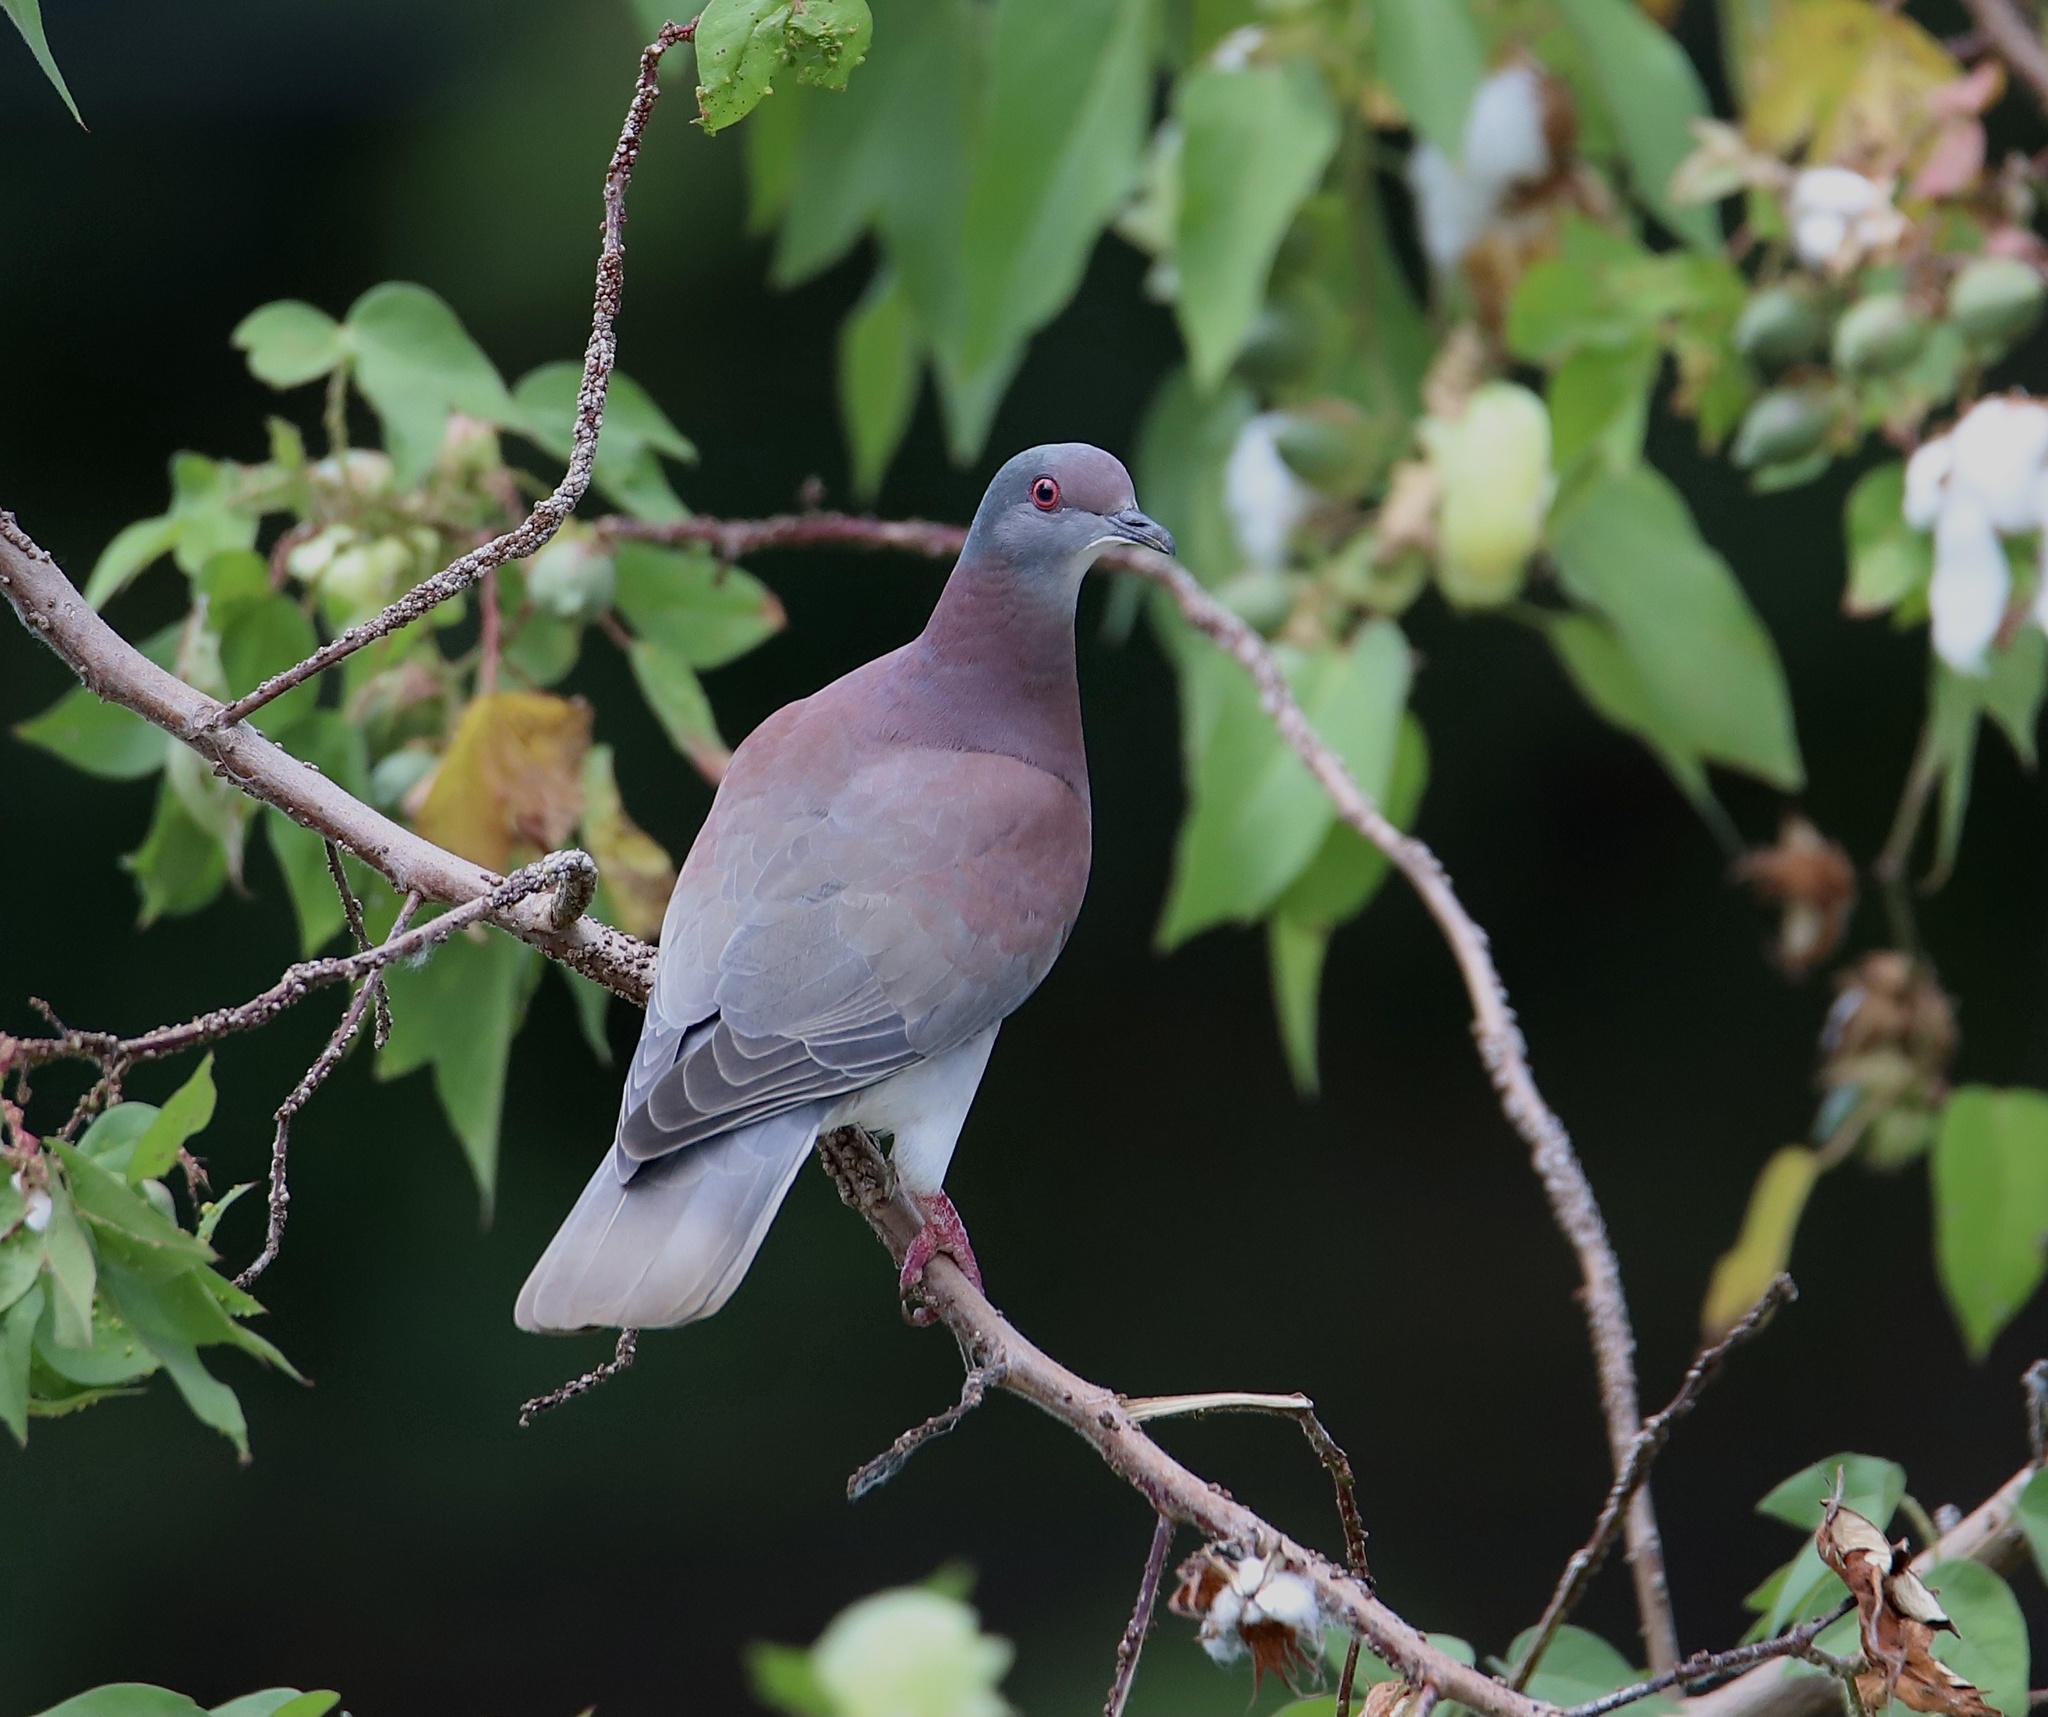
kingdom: Animalia
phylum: Chordata
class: Aves
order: Columbiformes
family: Columbidae
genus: Patagioenas
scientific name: Patagioenas cayennensis
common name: Pale-vented pigeon
